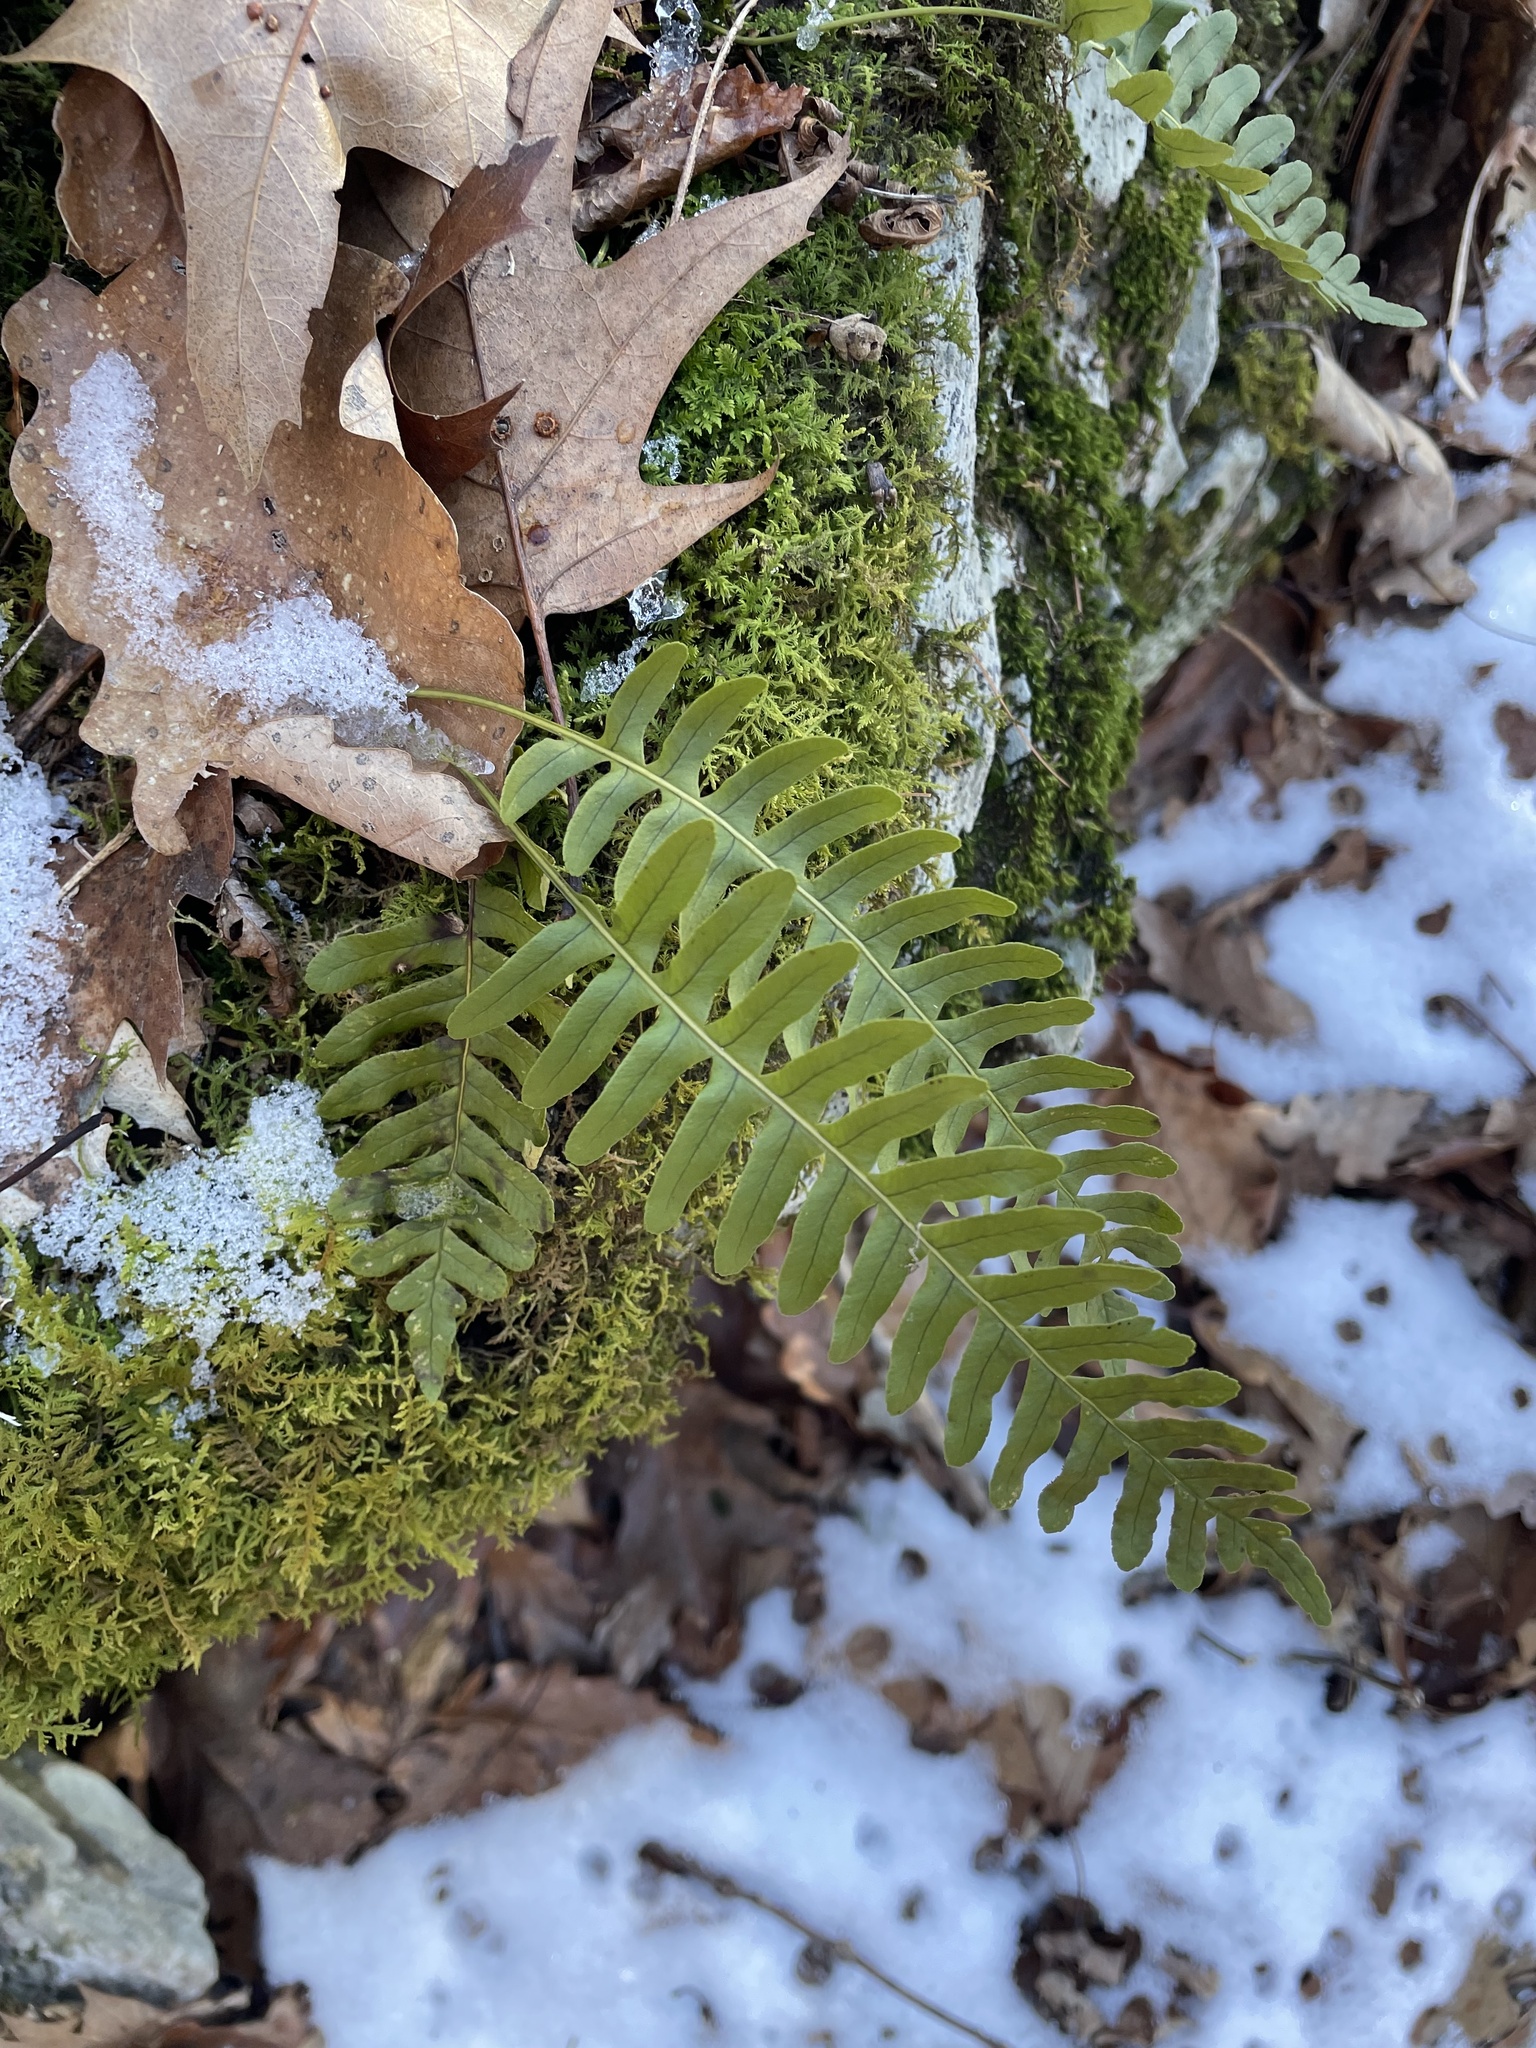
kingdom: Plantae
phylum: Tracheophyta
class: Polypodiopsida
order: Polypodiales
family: Polypodiaceae
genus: Polypodium
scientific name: Polypodium virginianum
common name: American wall fern
